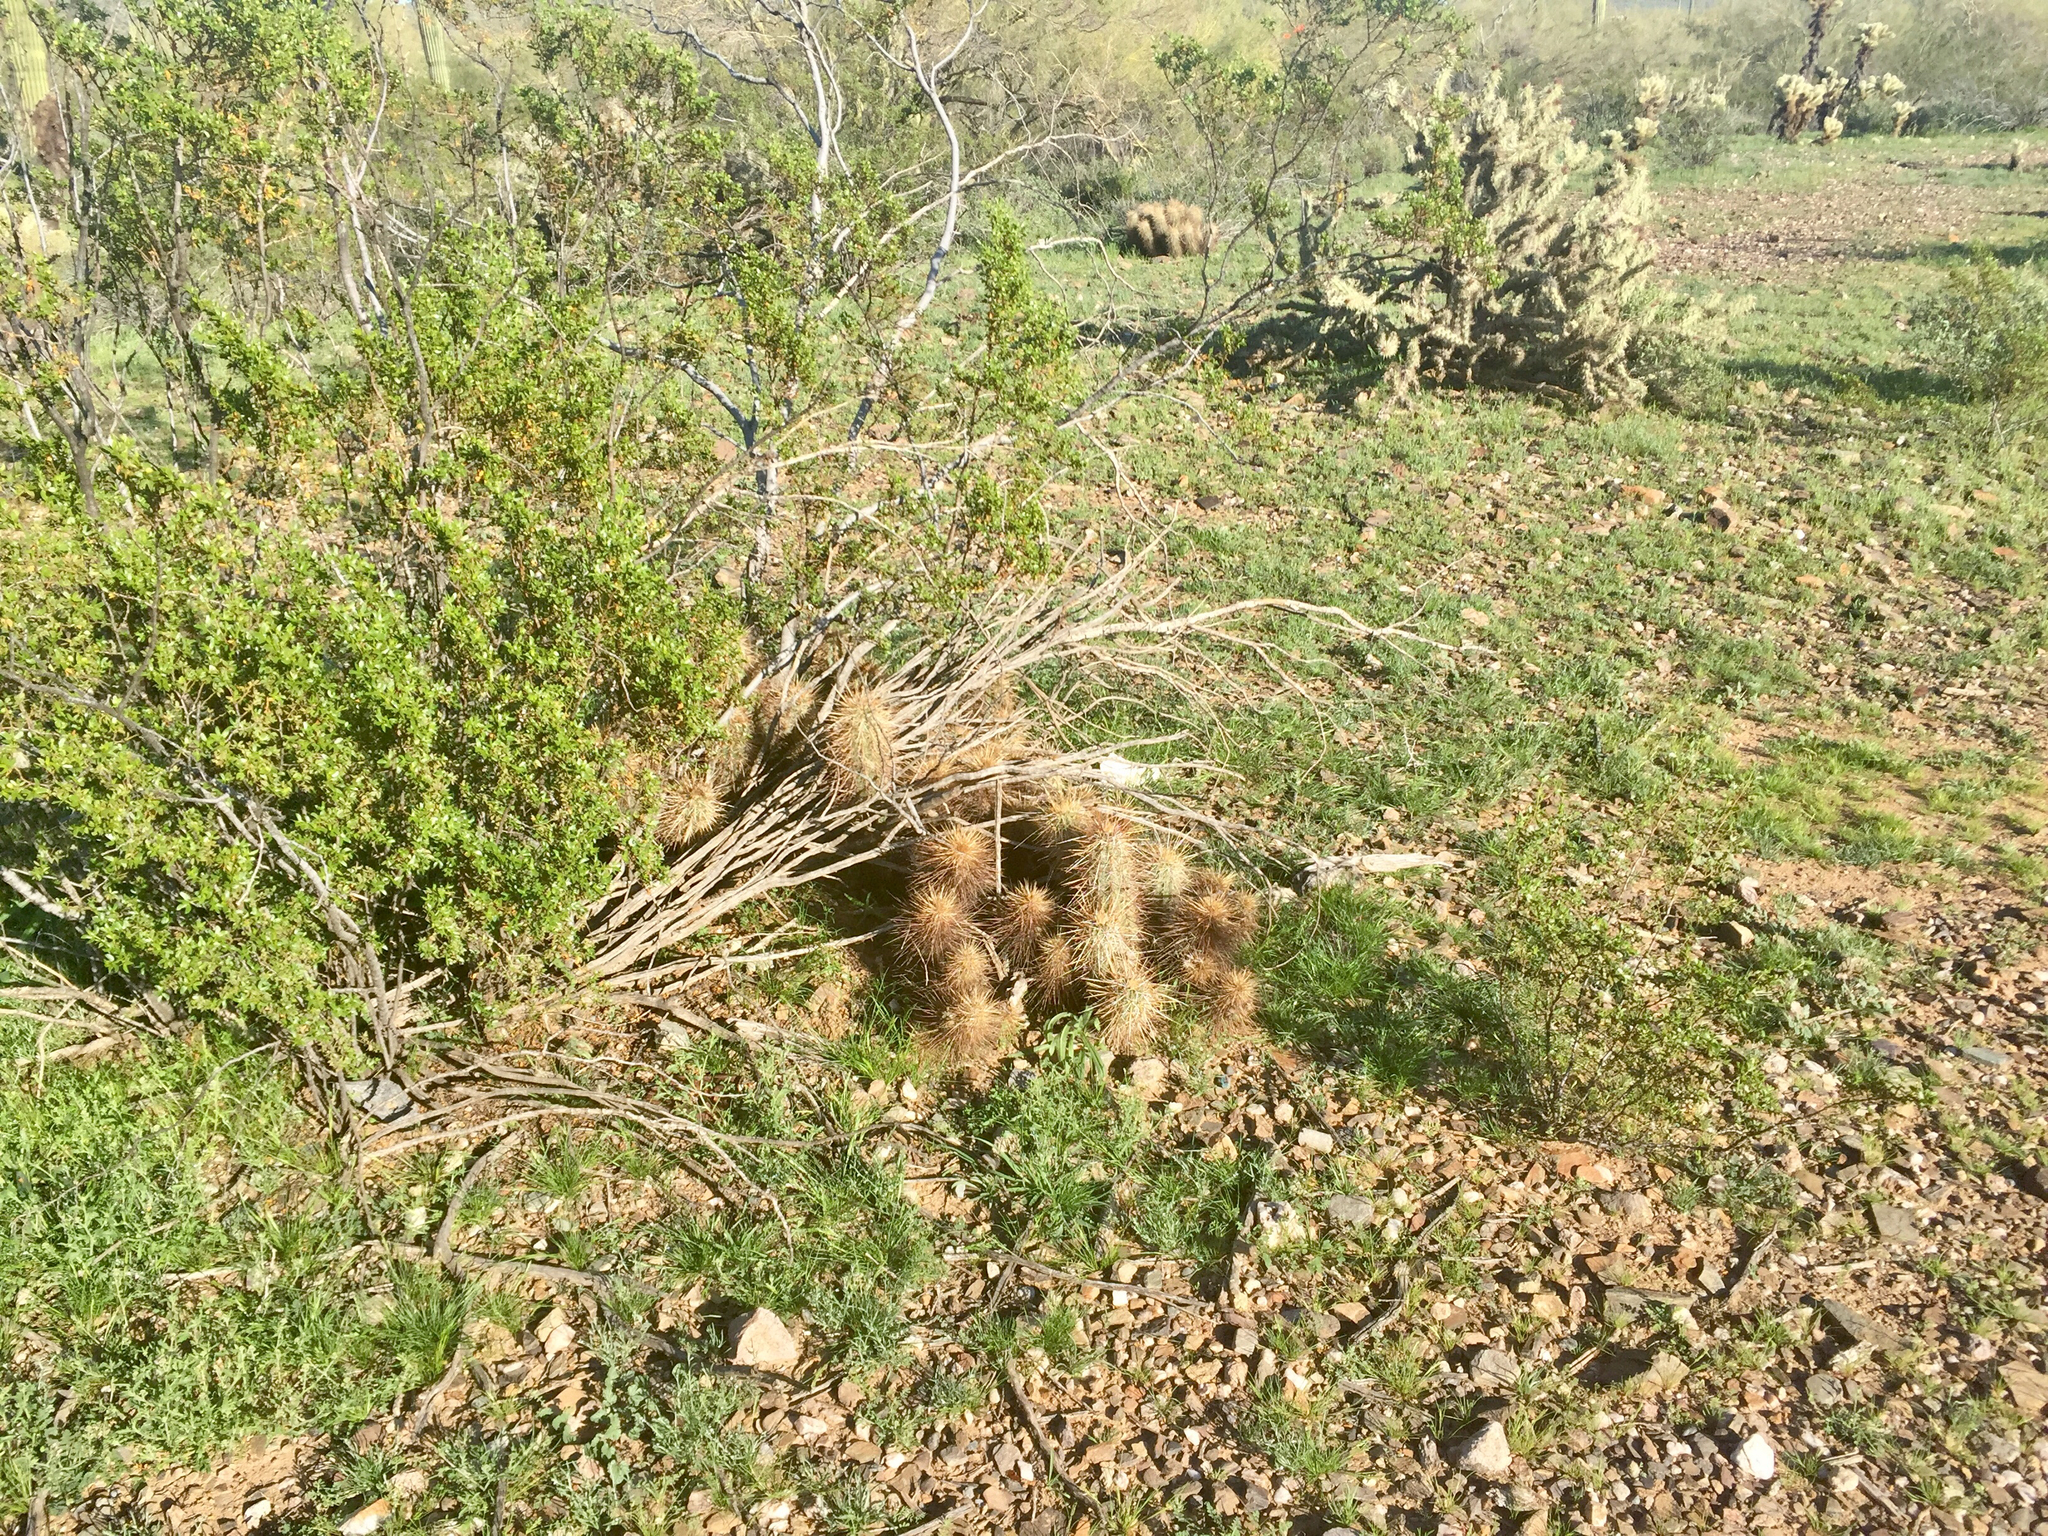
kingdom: Plantae
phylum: Tracheophyta
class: Magnoliopsida
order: Caryophyllales
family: Cactaceae
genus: Echinocereus
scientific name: Echinocereus engelmannii
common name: Engelmann's hedgehog cactus
